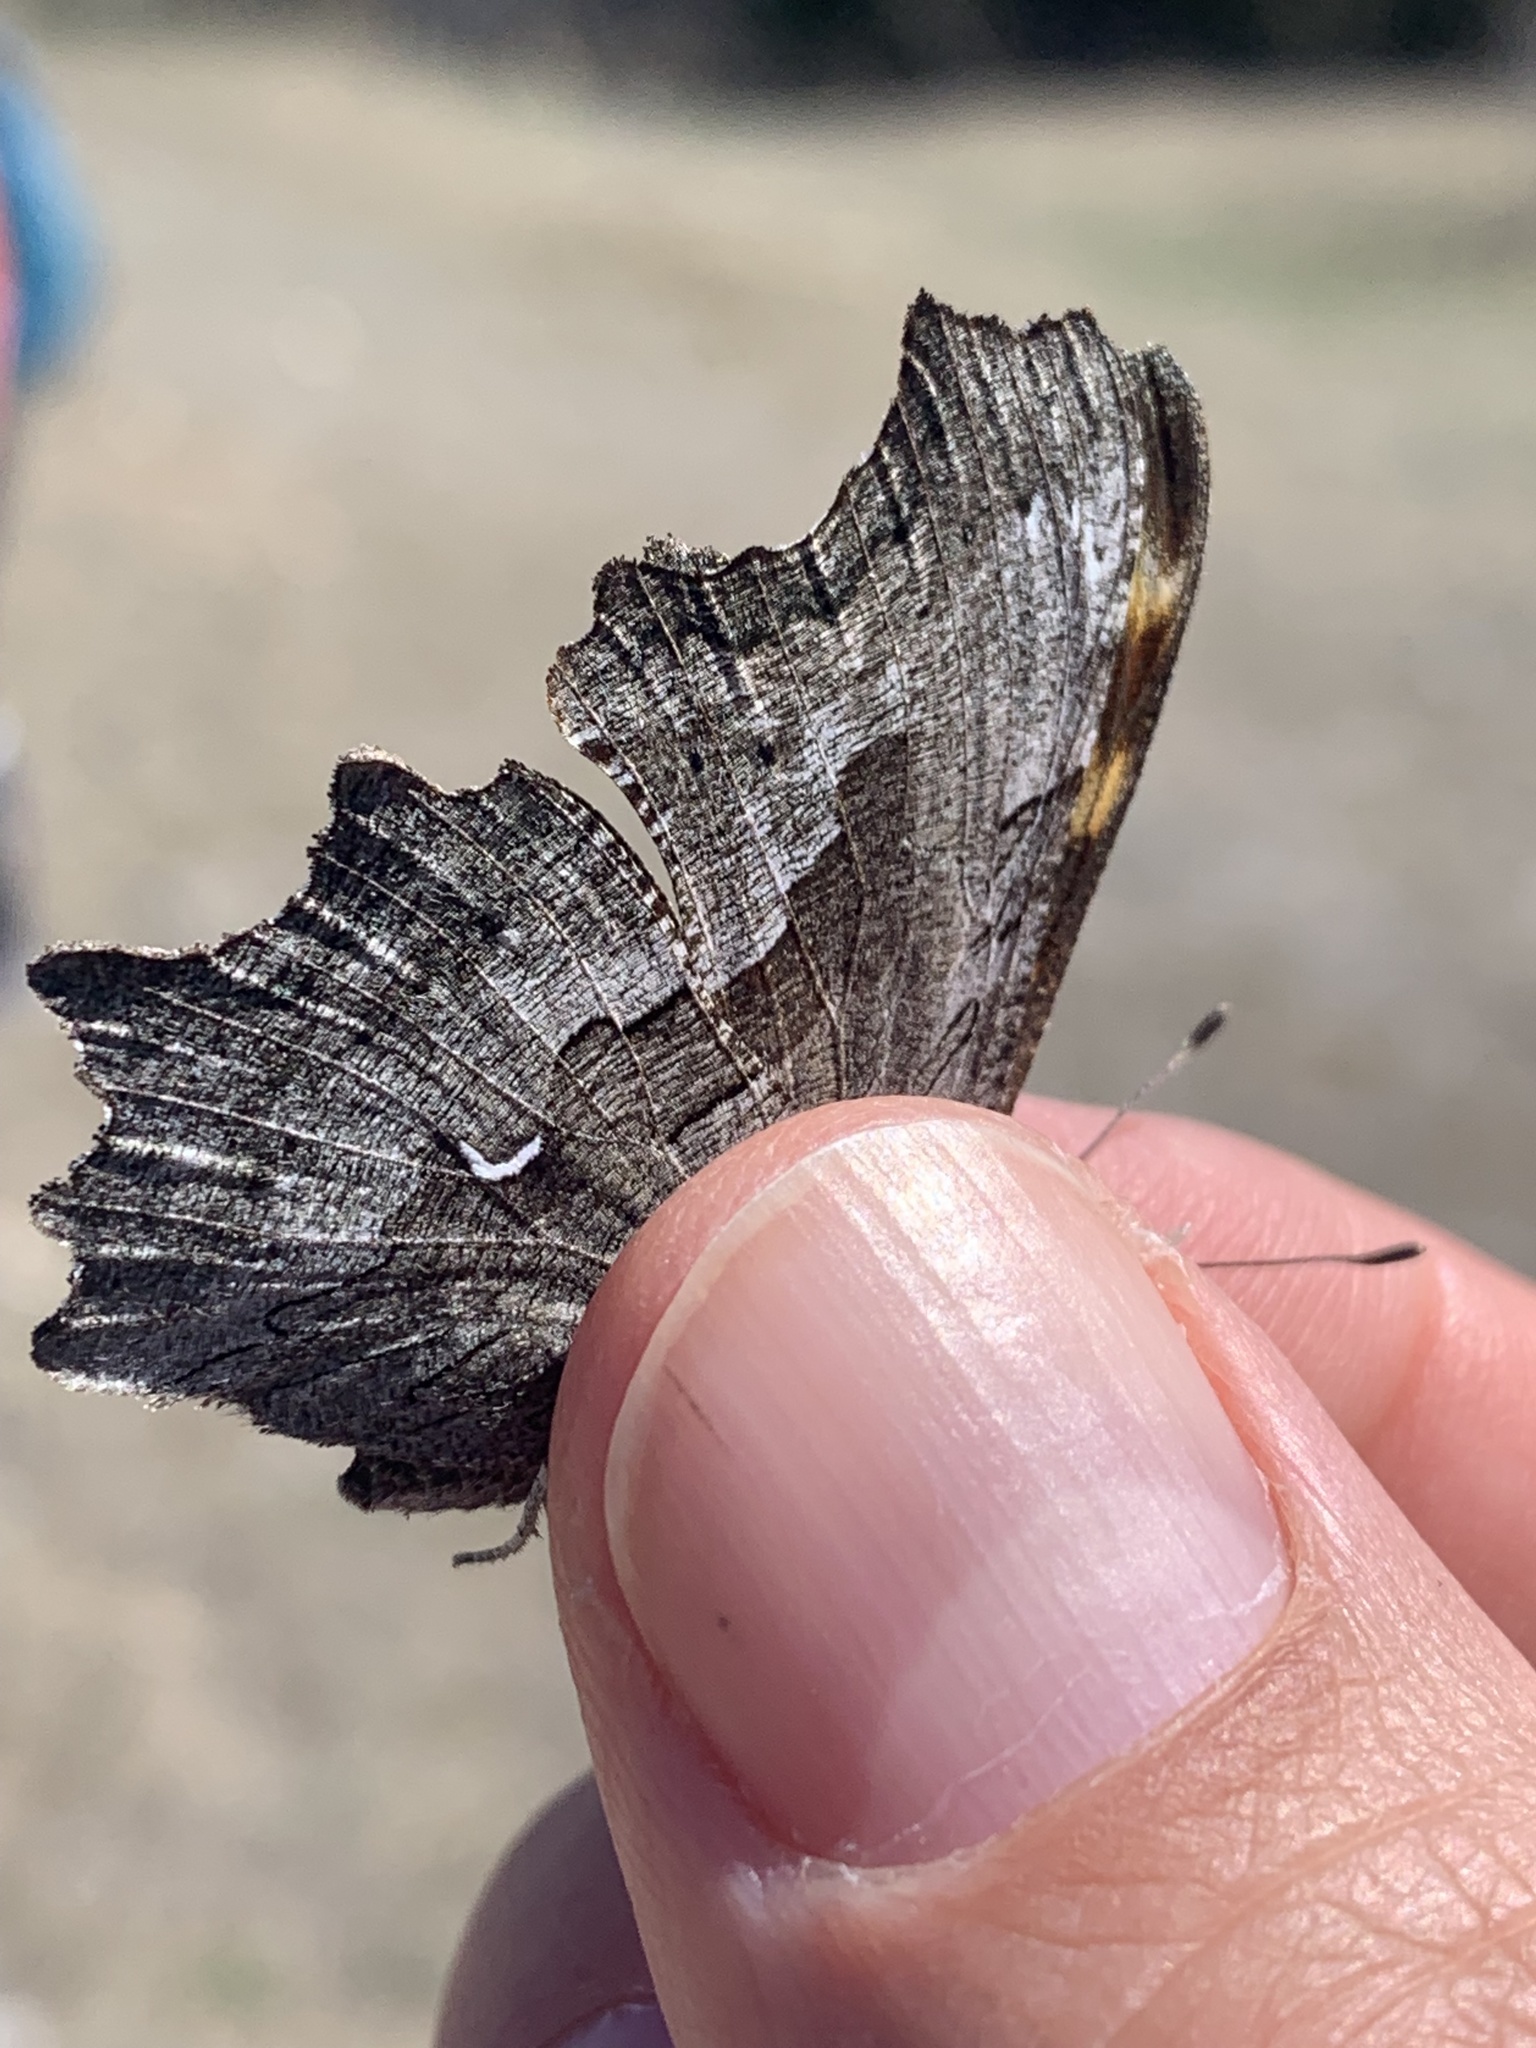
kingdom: Animalia
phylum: Arthropoda
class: Insecta
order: Lepidoptera
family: Nymphalidae
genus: Polygonia
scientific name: Polygonia gracilis
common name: Hoary comma
